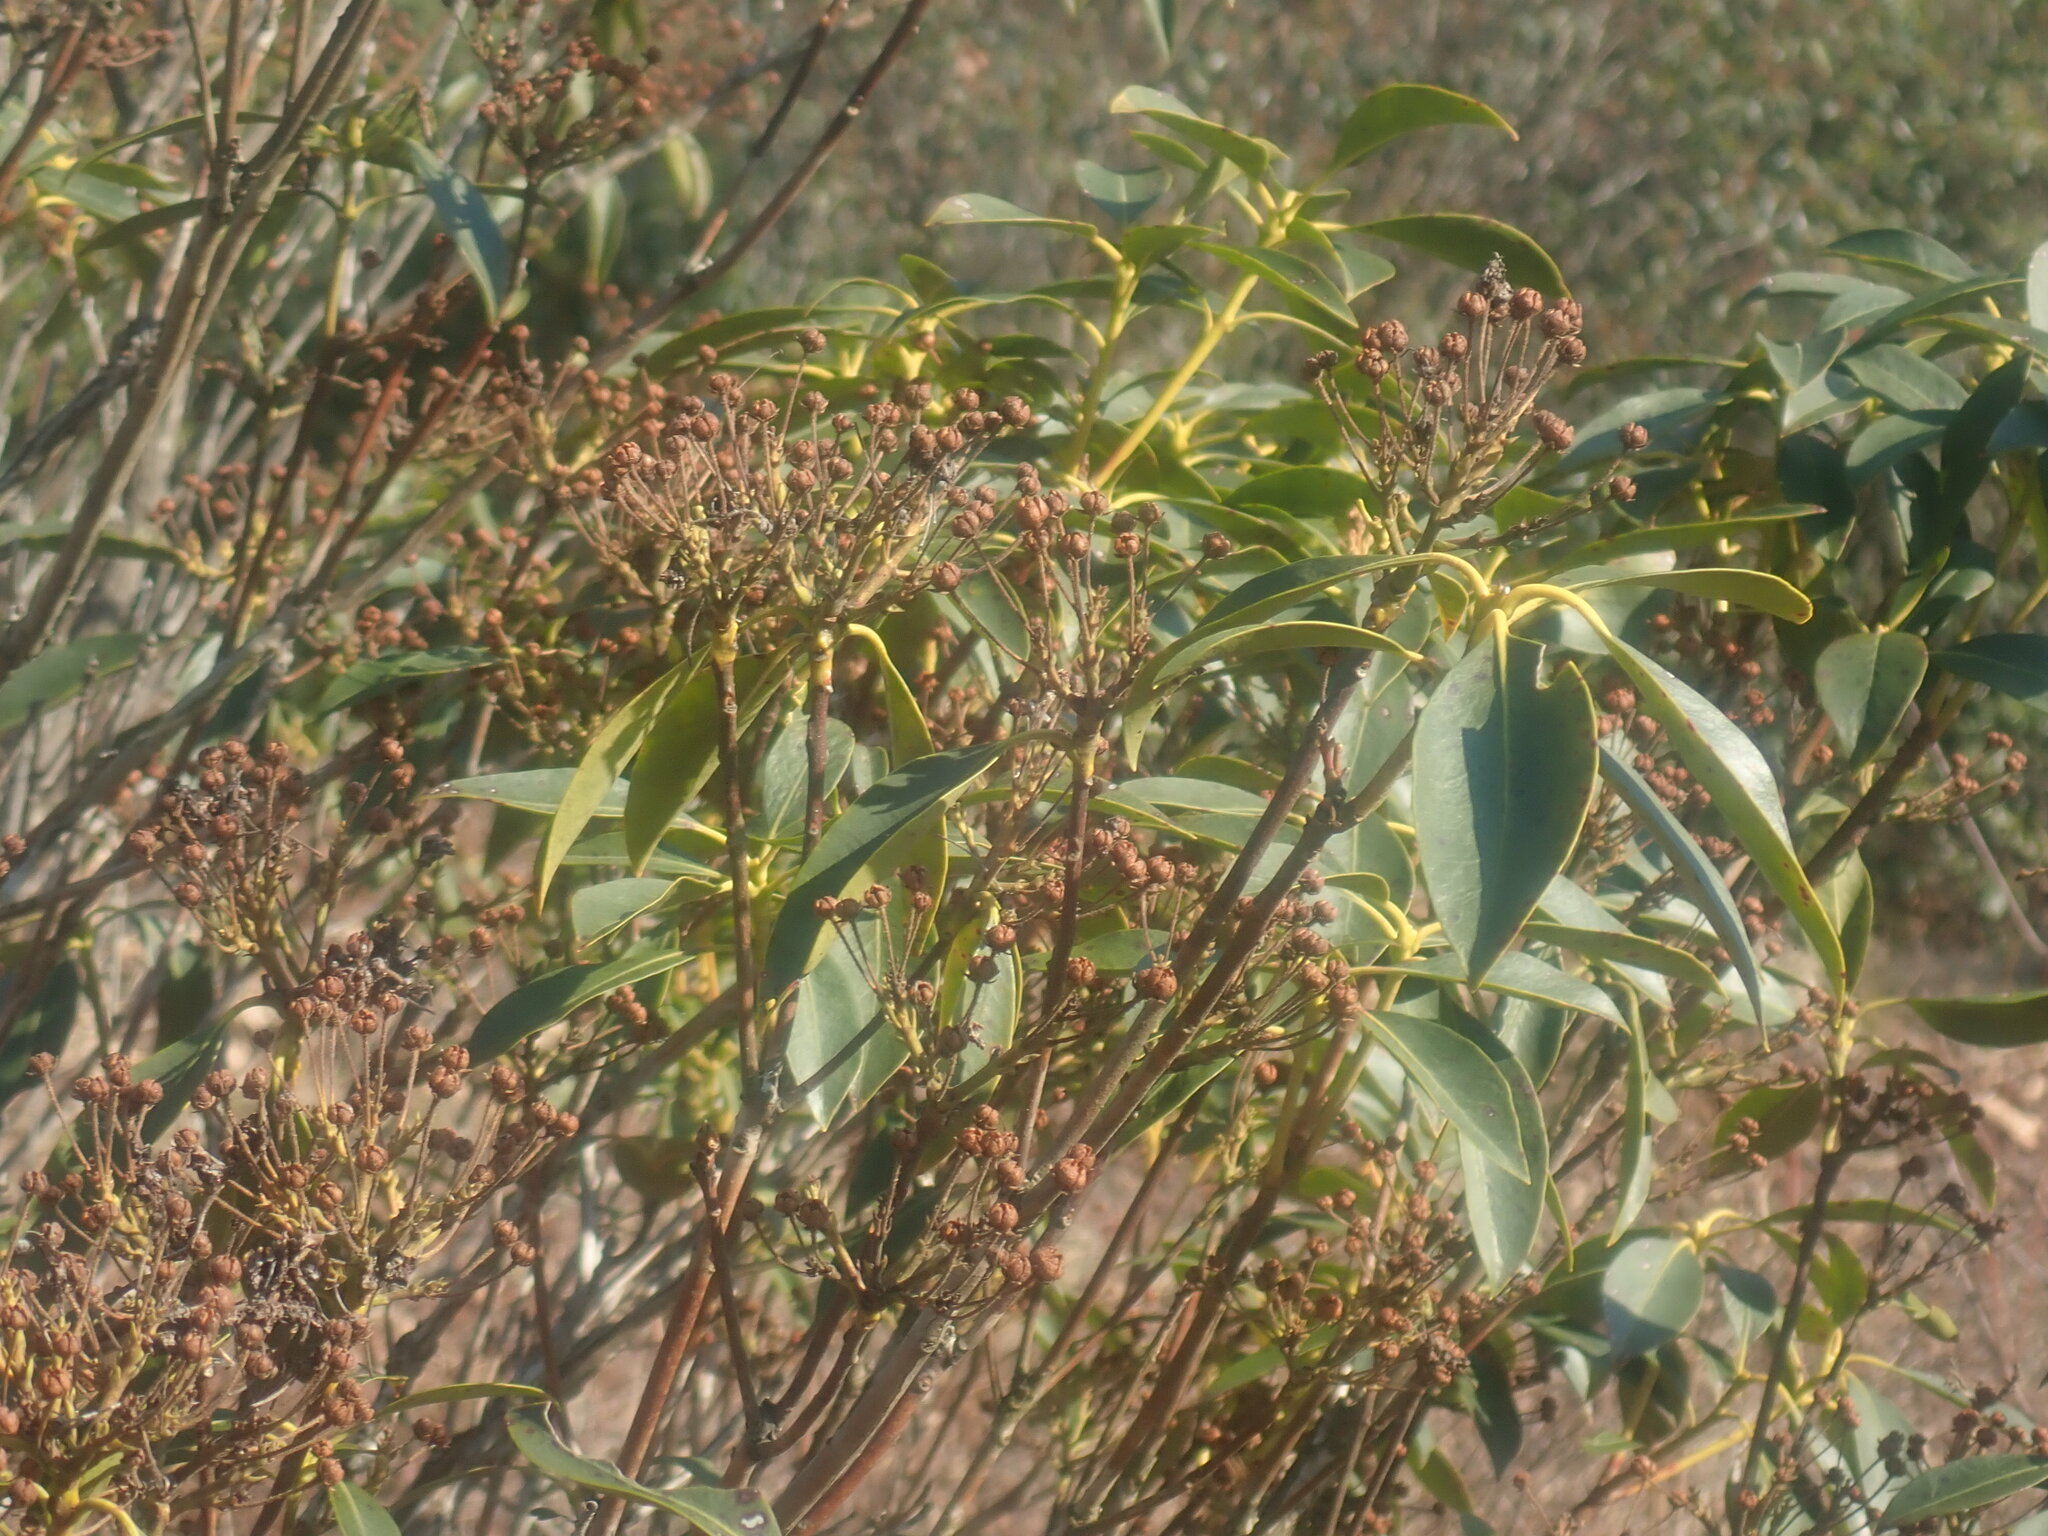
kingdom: Plantae
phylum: Tracheophyta
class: Magnoliopsida
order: Ericales
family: Ericaceae
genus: Kalmia
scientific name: Kalmia latifolia
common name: Mountain-laurel
